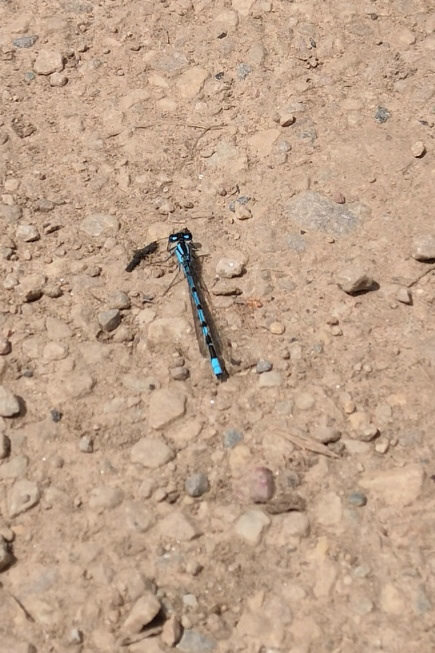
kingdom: Animalia
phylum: Arthropoda
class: Insecta
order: Odonata
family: Coenagrionidae
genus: Enallagma
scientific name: Enallagma cyathigerum
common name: Common blue damselfly
